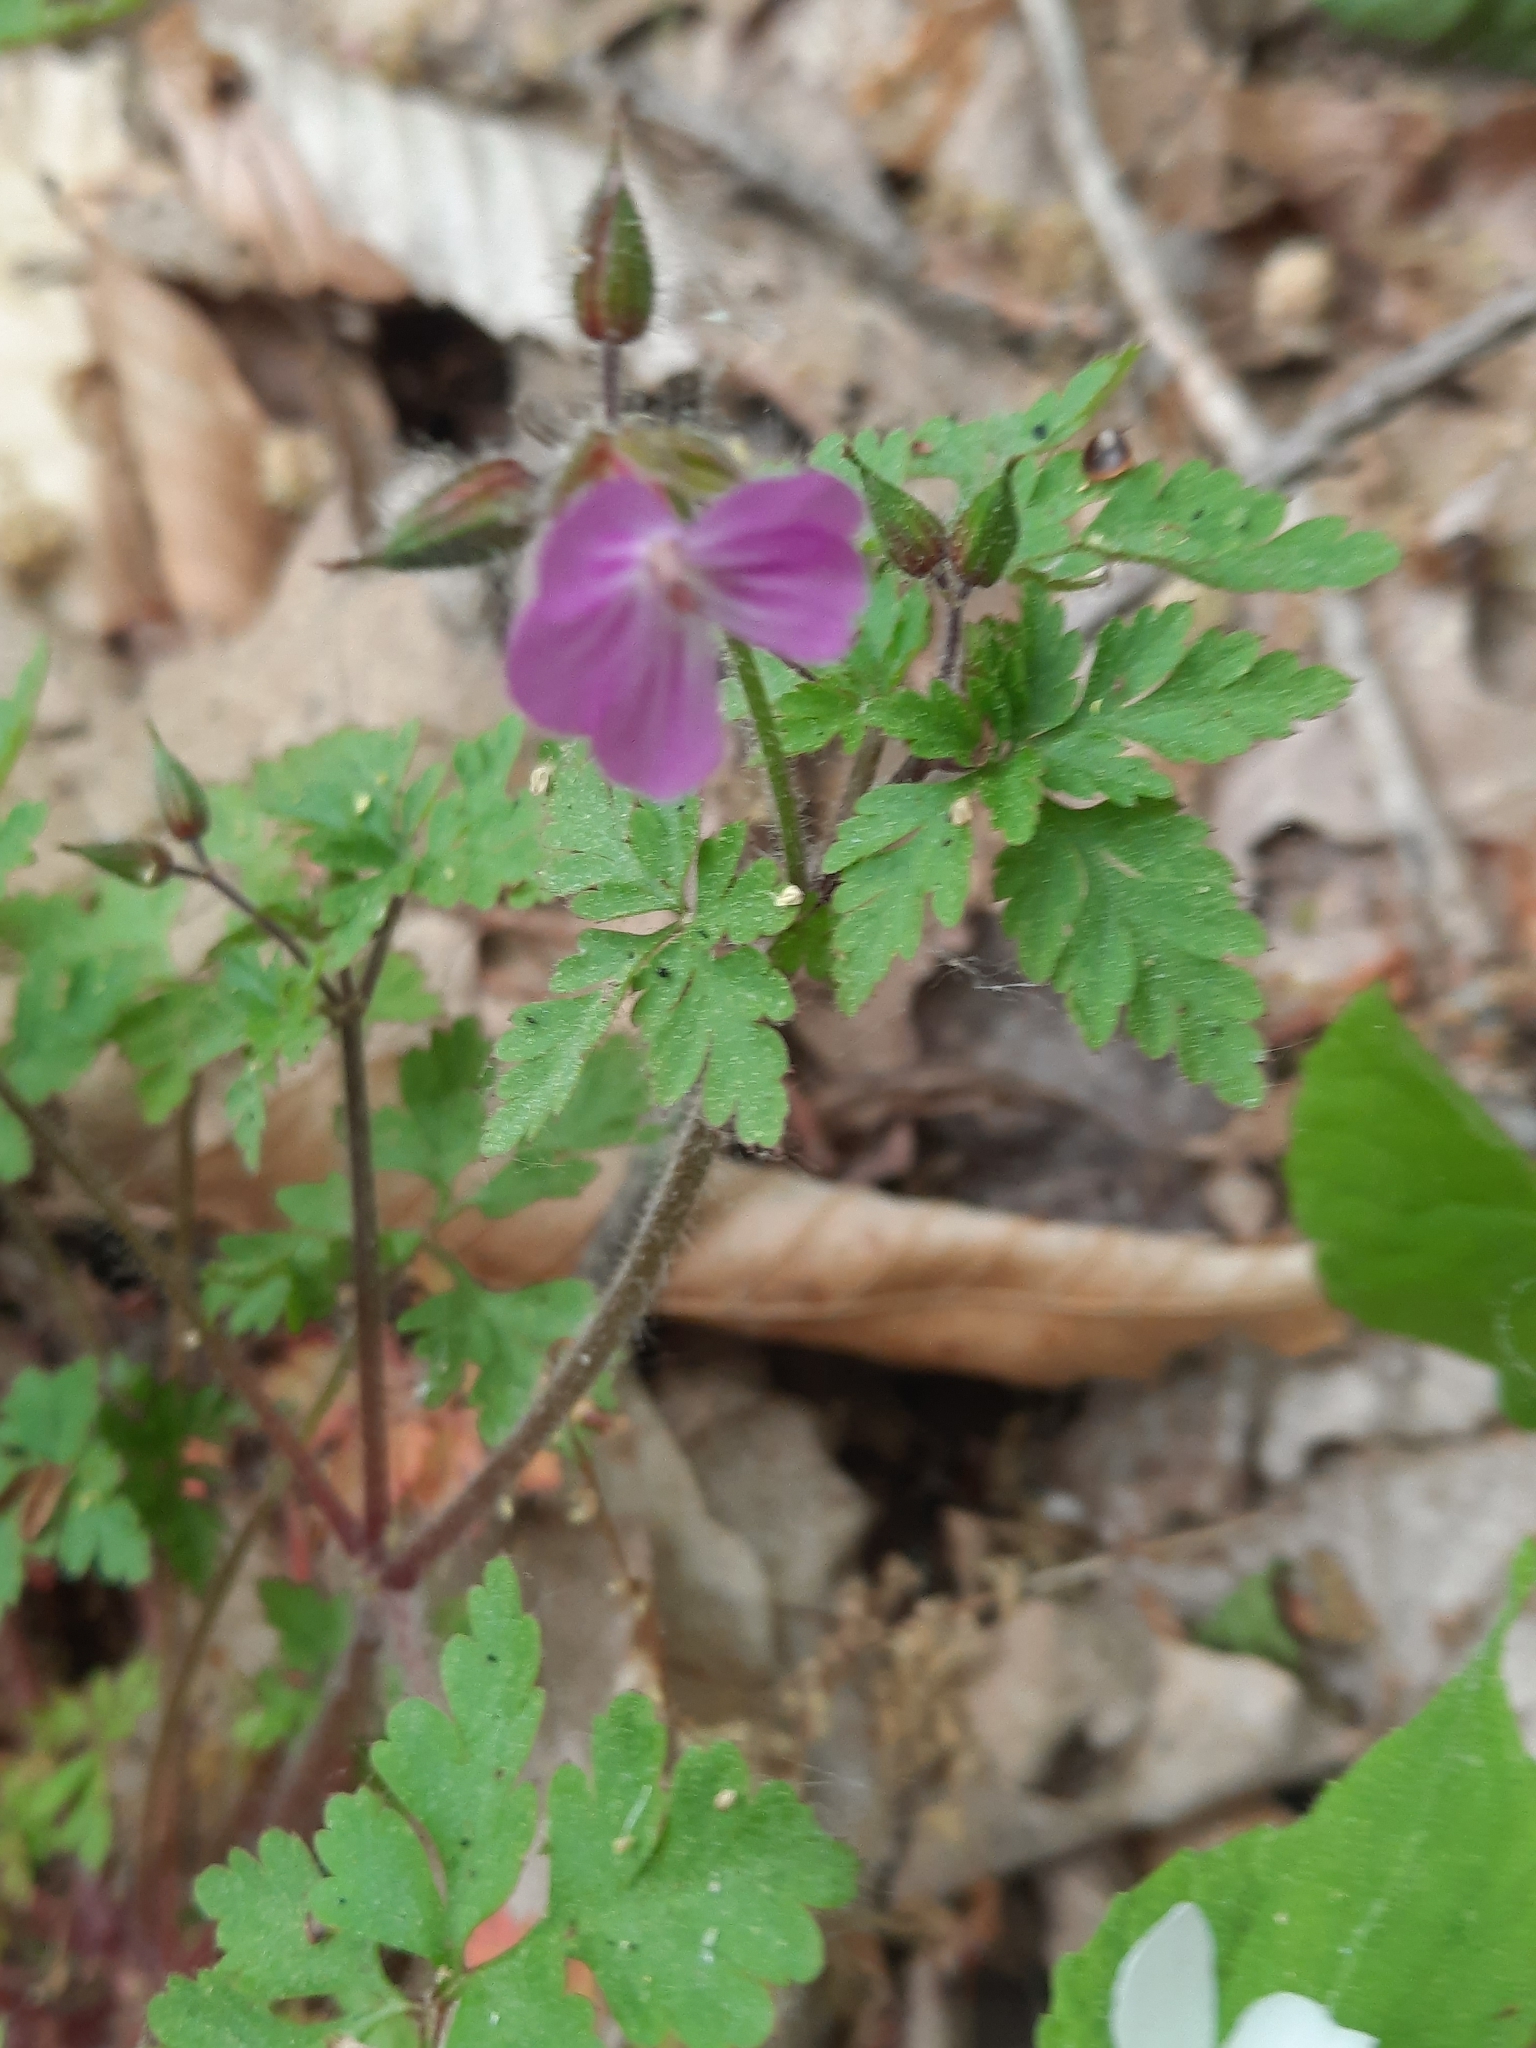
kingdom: Plantae
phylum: Tracheophyta
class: Magnoliopsida
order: Geraniales
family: Geraniaceae
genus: Geranium
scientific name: Geranium robertianum
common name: Herb-robert
